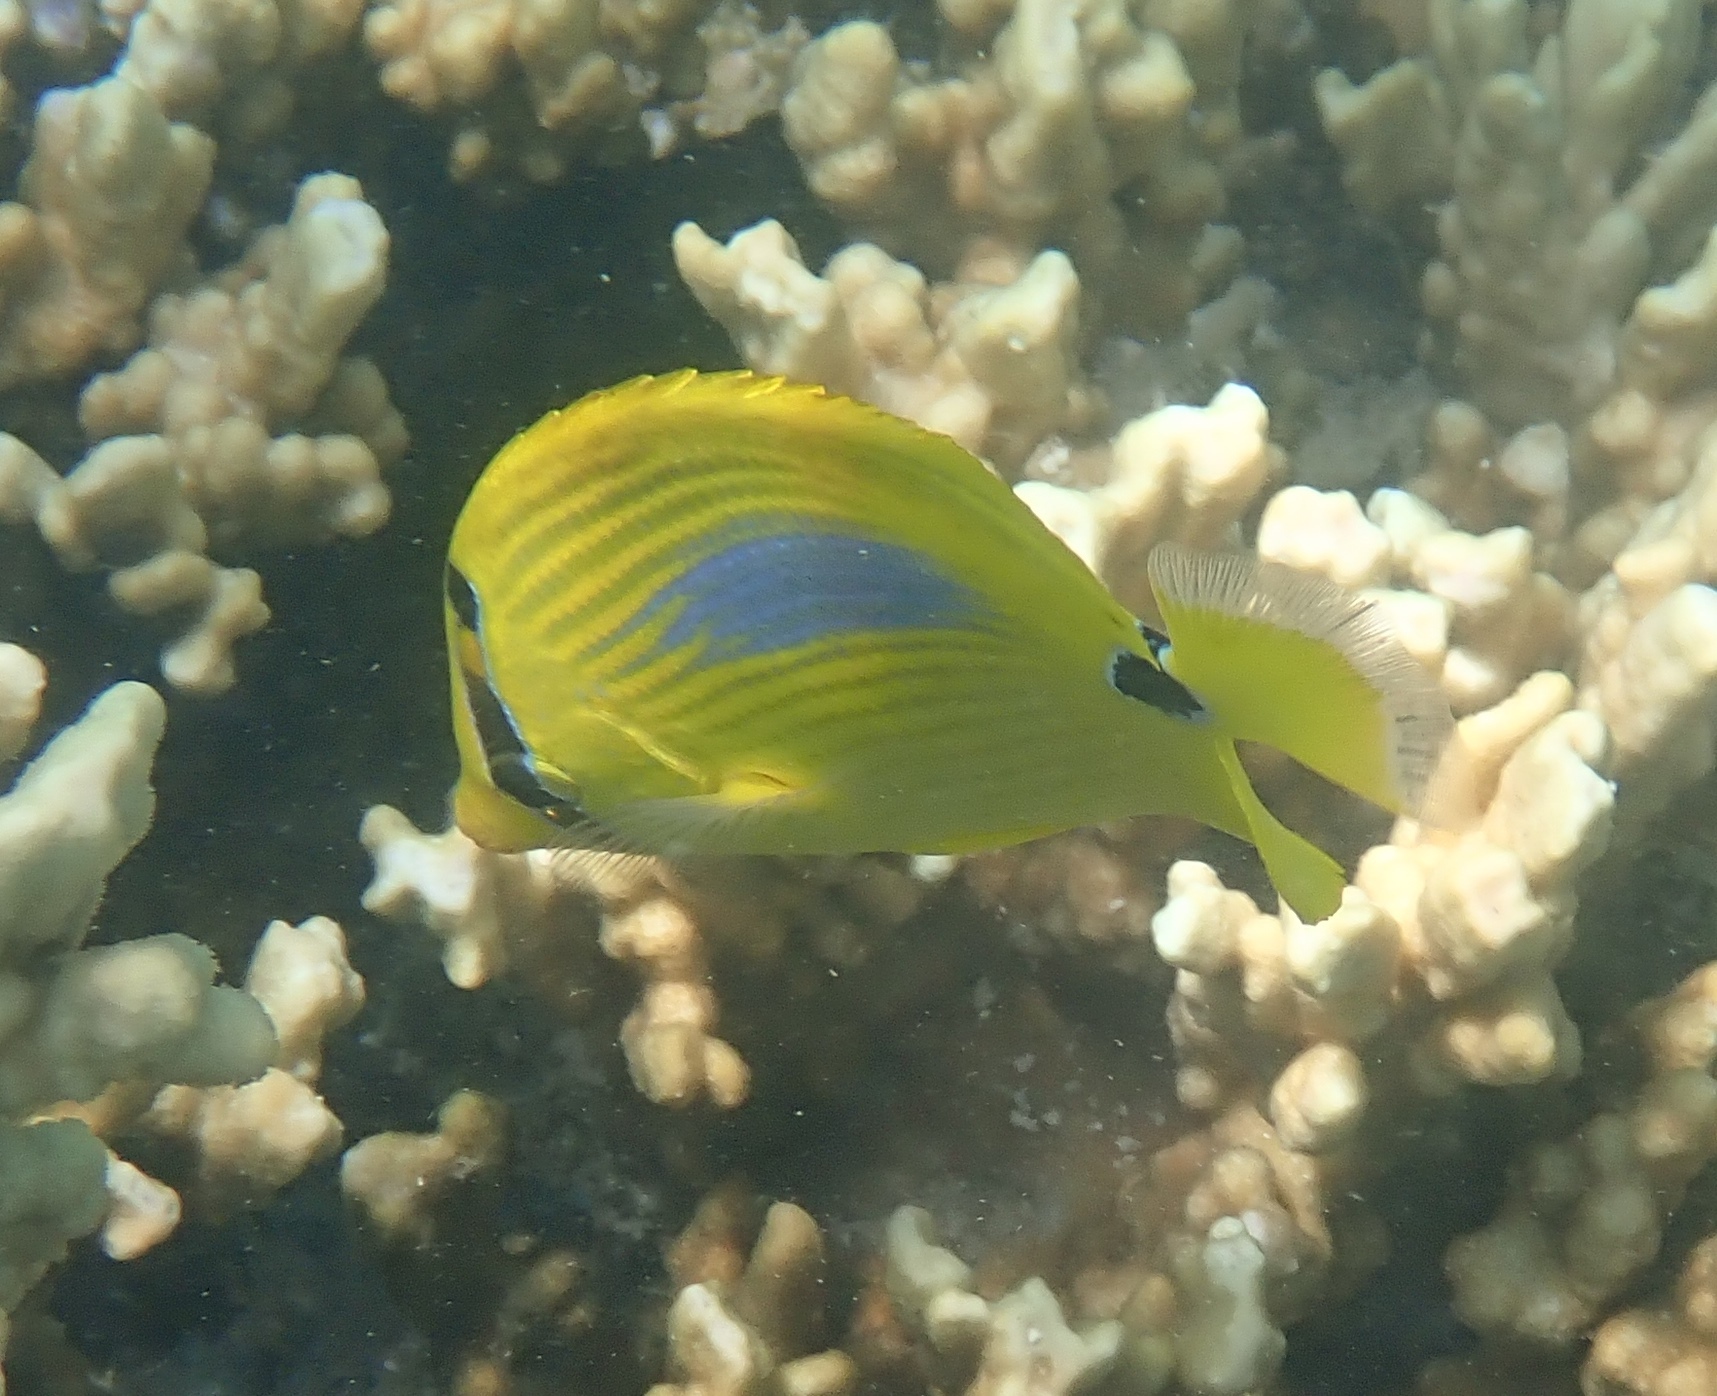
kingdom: Animalia
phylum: Chordata
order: Perciformes
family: Chaetodontidae
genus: Chaetodon
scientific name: Chaetodon plebeius
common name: Bluespot butterflyfish
